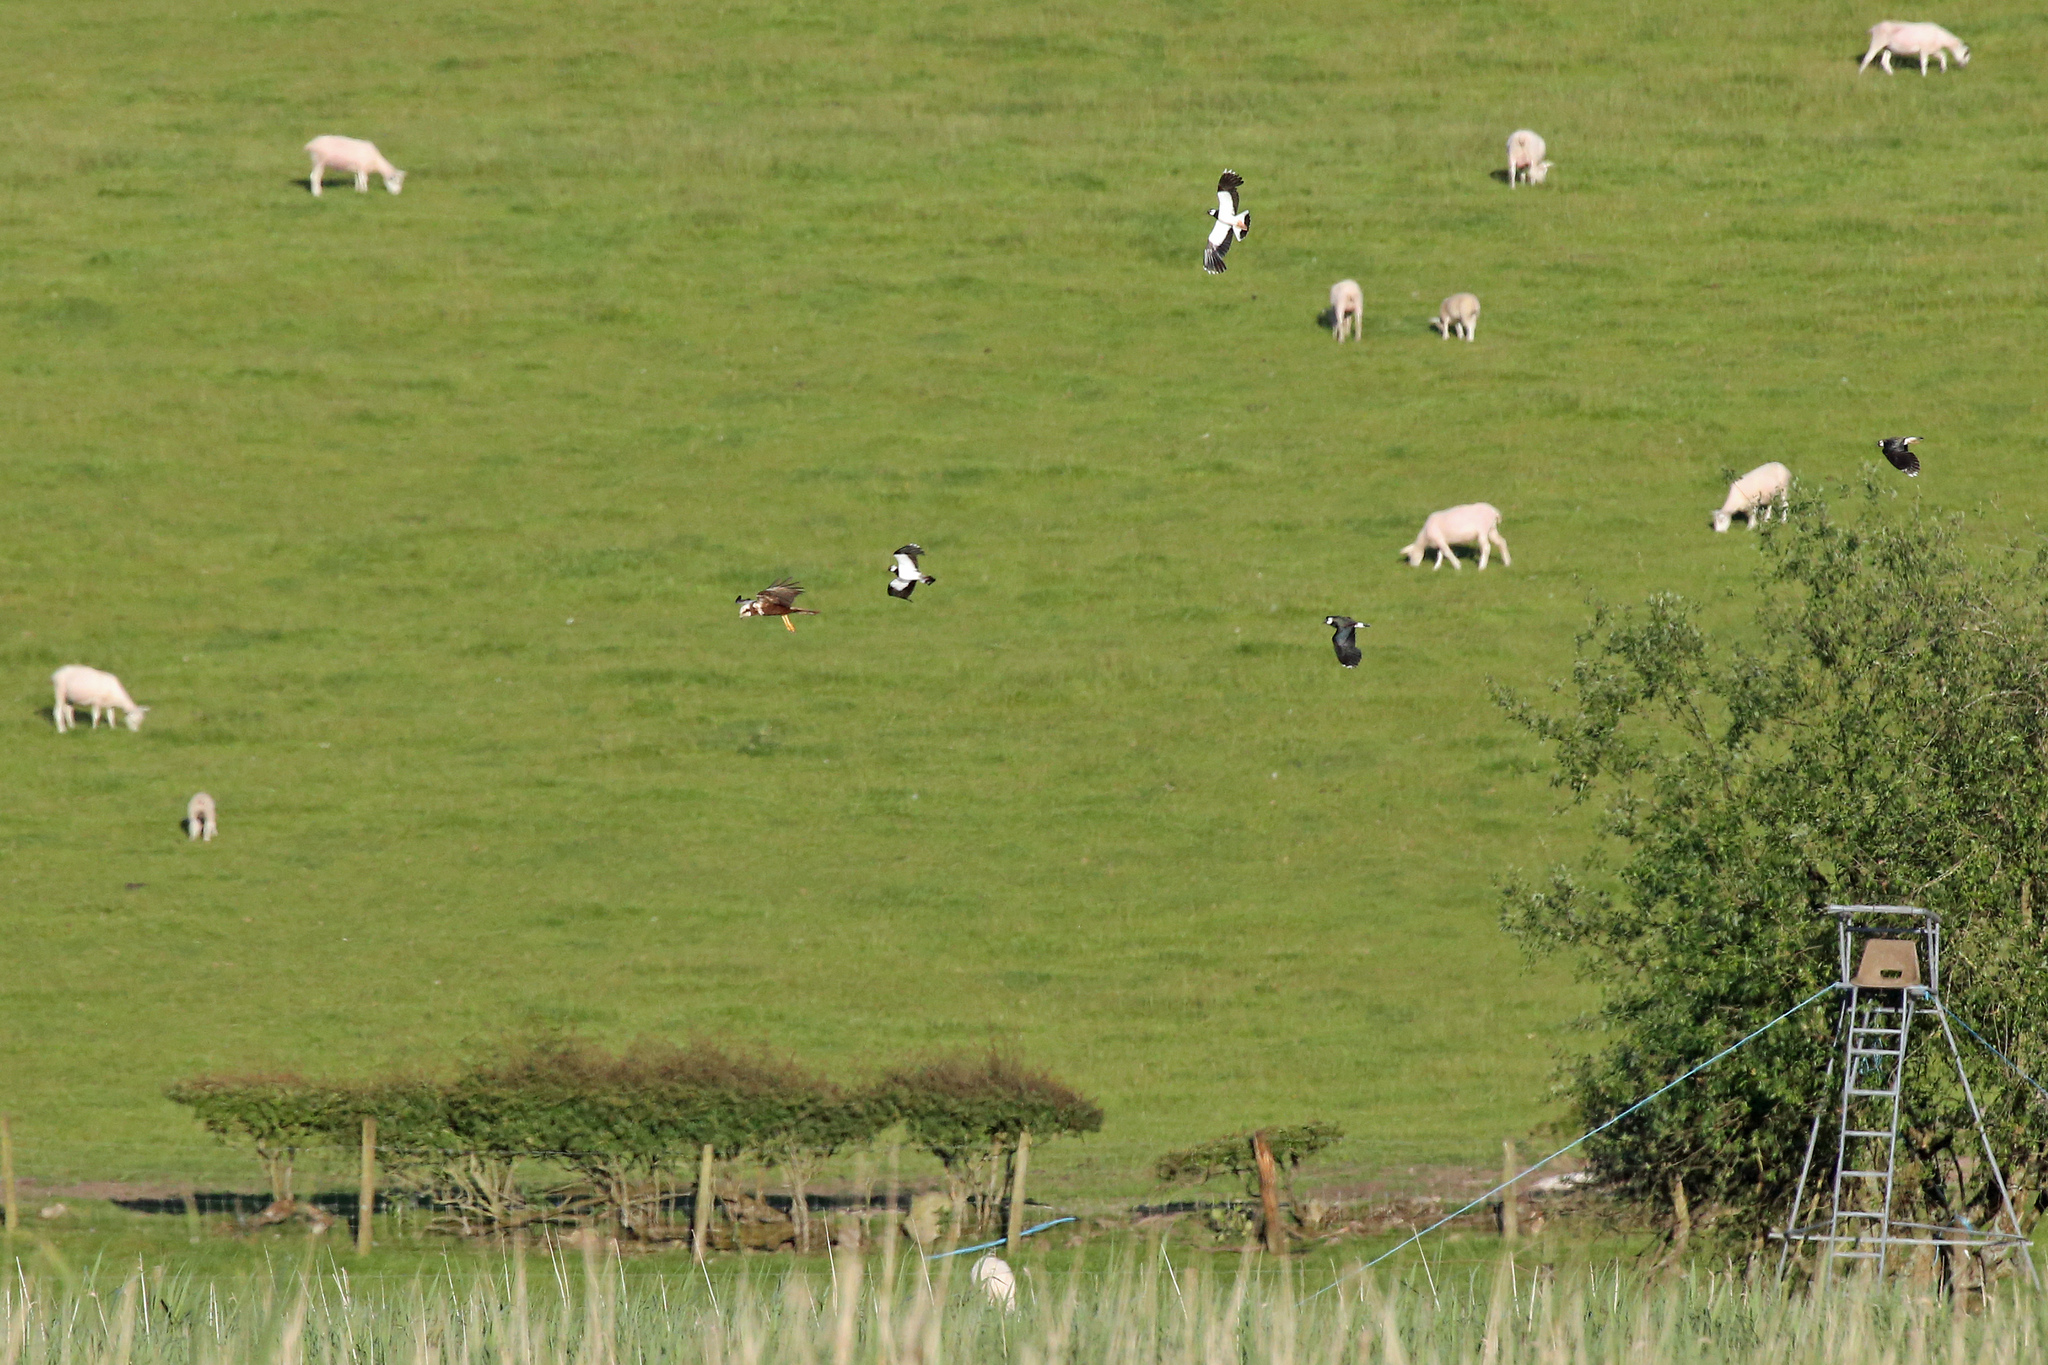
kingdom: Animalia
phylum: Chordata
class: Aves
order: Charadriiformes
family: Charadriidae
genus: Vanellus
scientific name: Vanellus vanellus
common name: Northern lapwing
